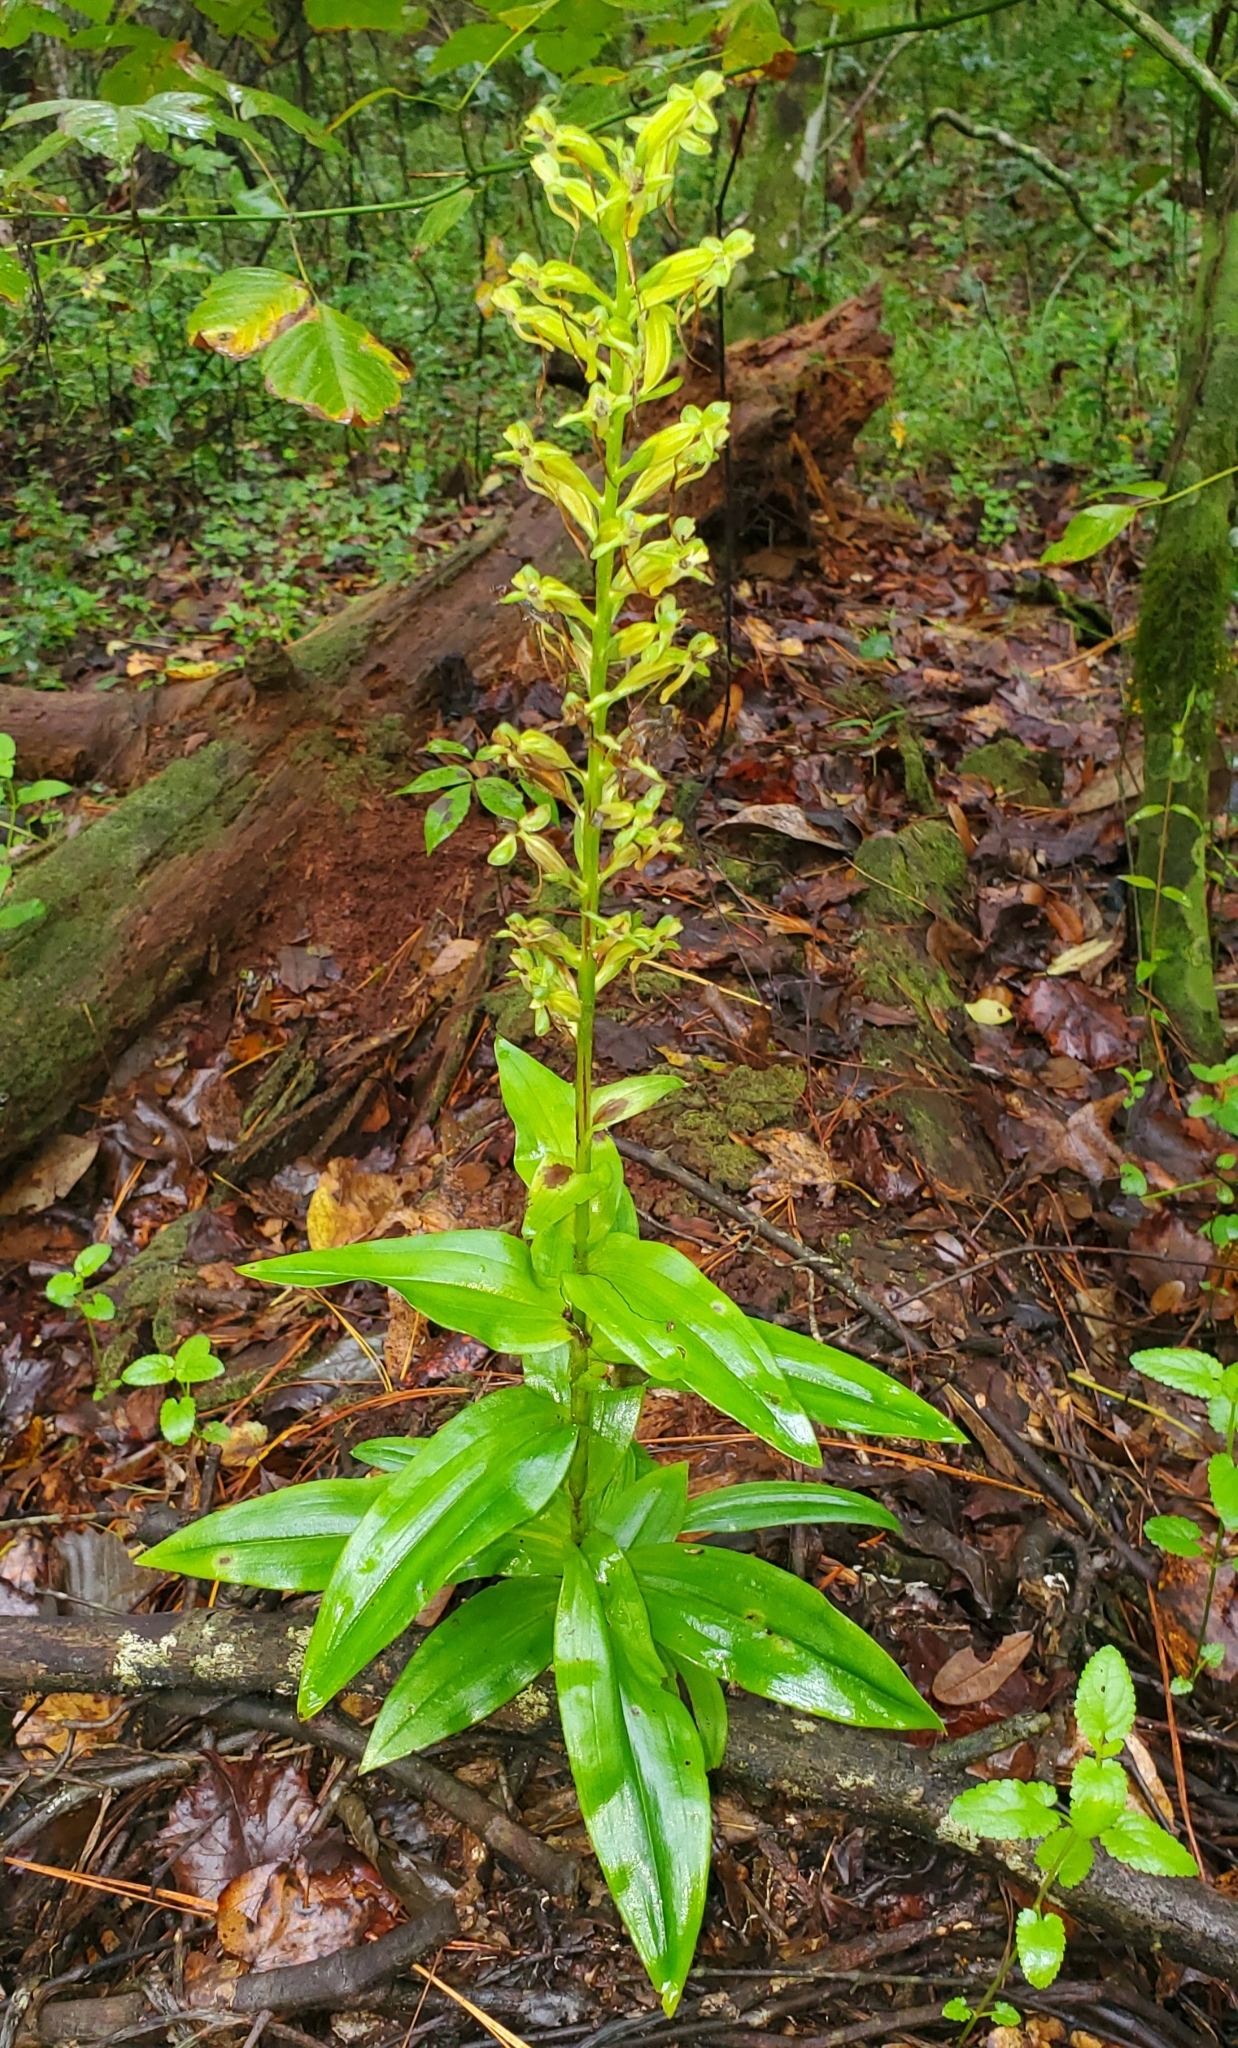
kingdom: Plantae
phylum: Tracheophyta
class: Liliopsida
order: Asparagales
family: Orchidaceae
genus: Habenaria
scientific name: Habenaria floribunda
